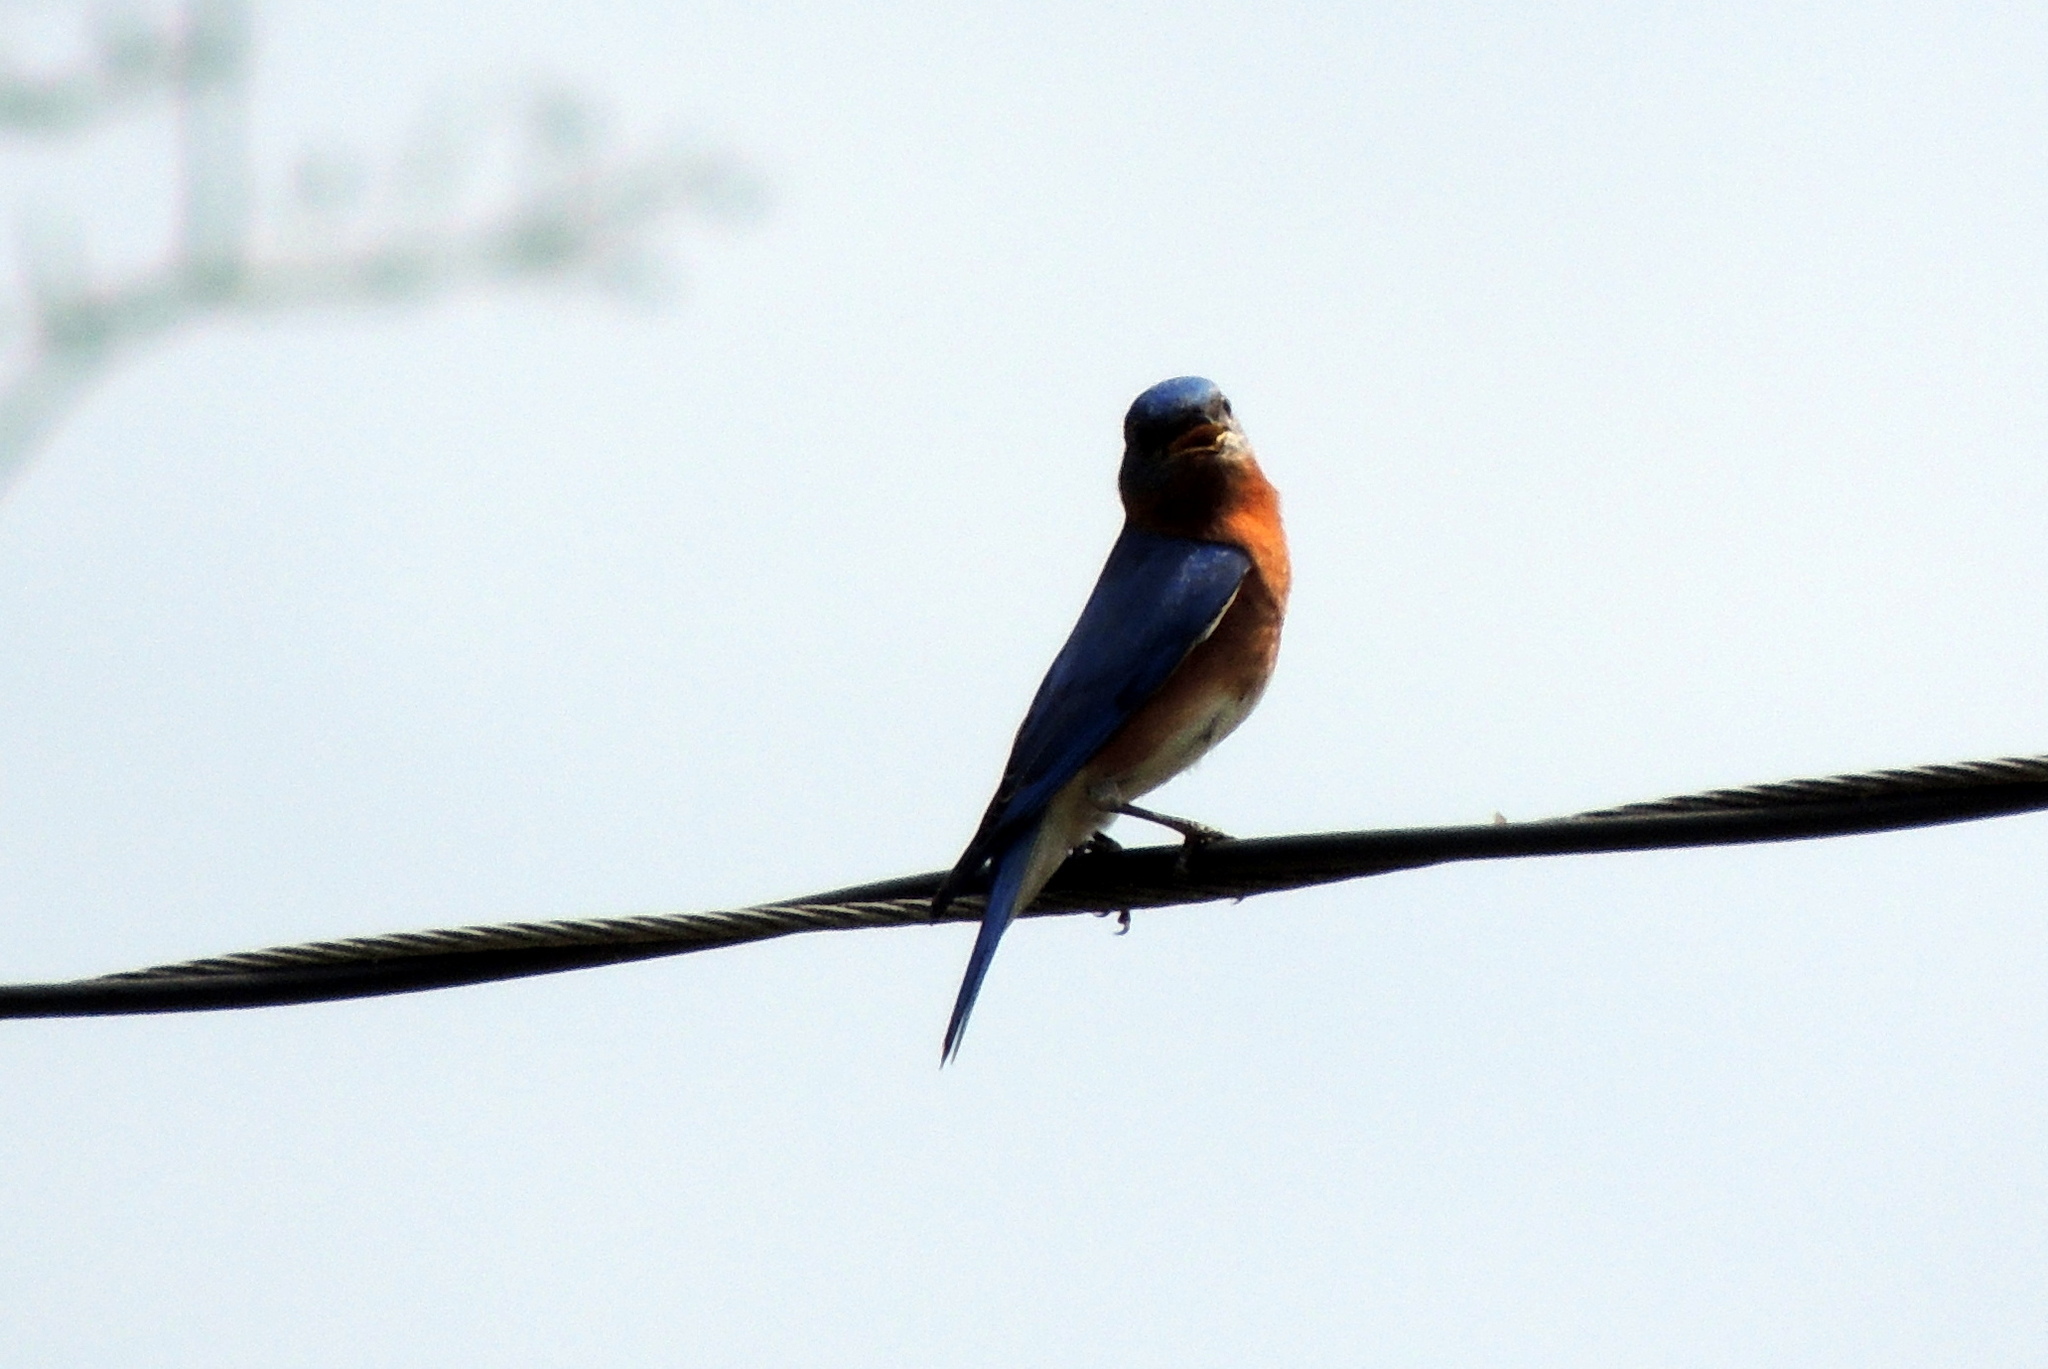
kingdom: Animalia
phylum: Chordata
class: Aves
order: Passeriformes
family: Turdidae
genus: Sialia
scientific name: Sialia sialis
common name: Eastern bluebird
